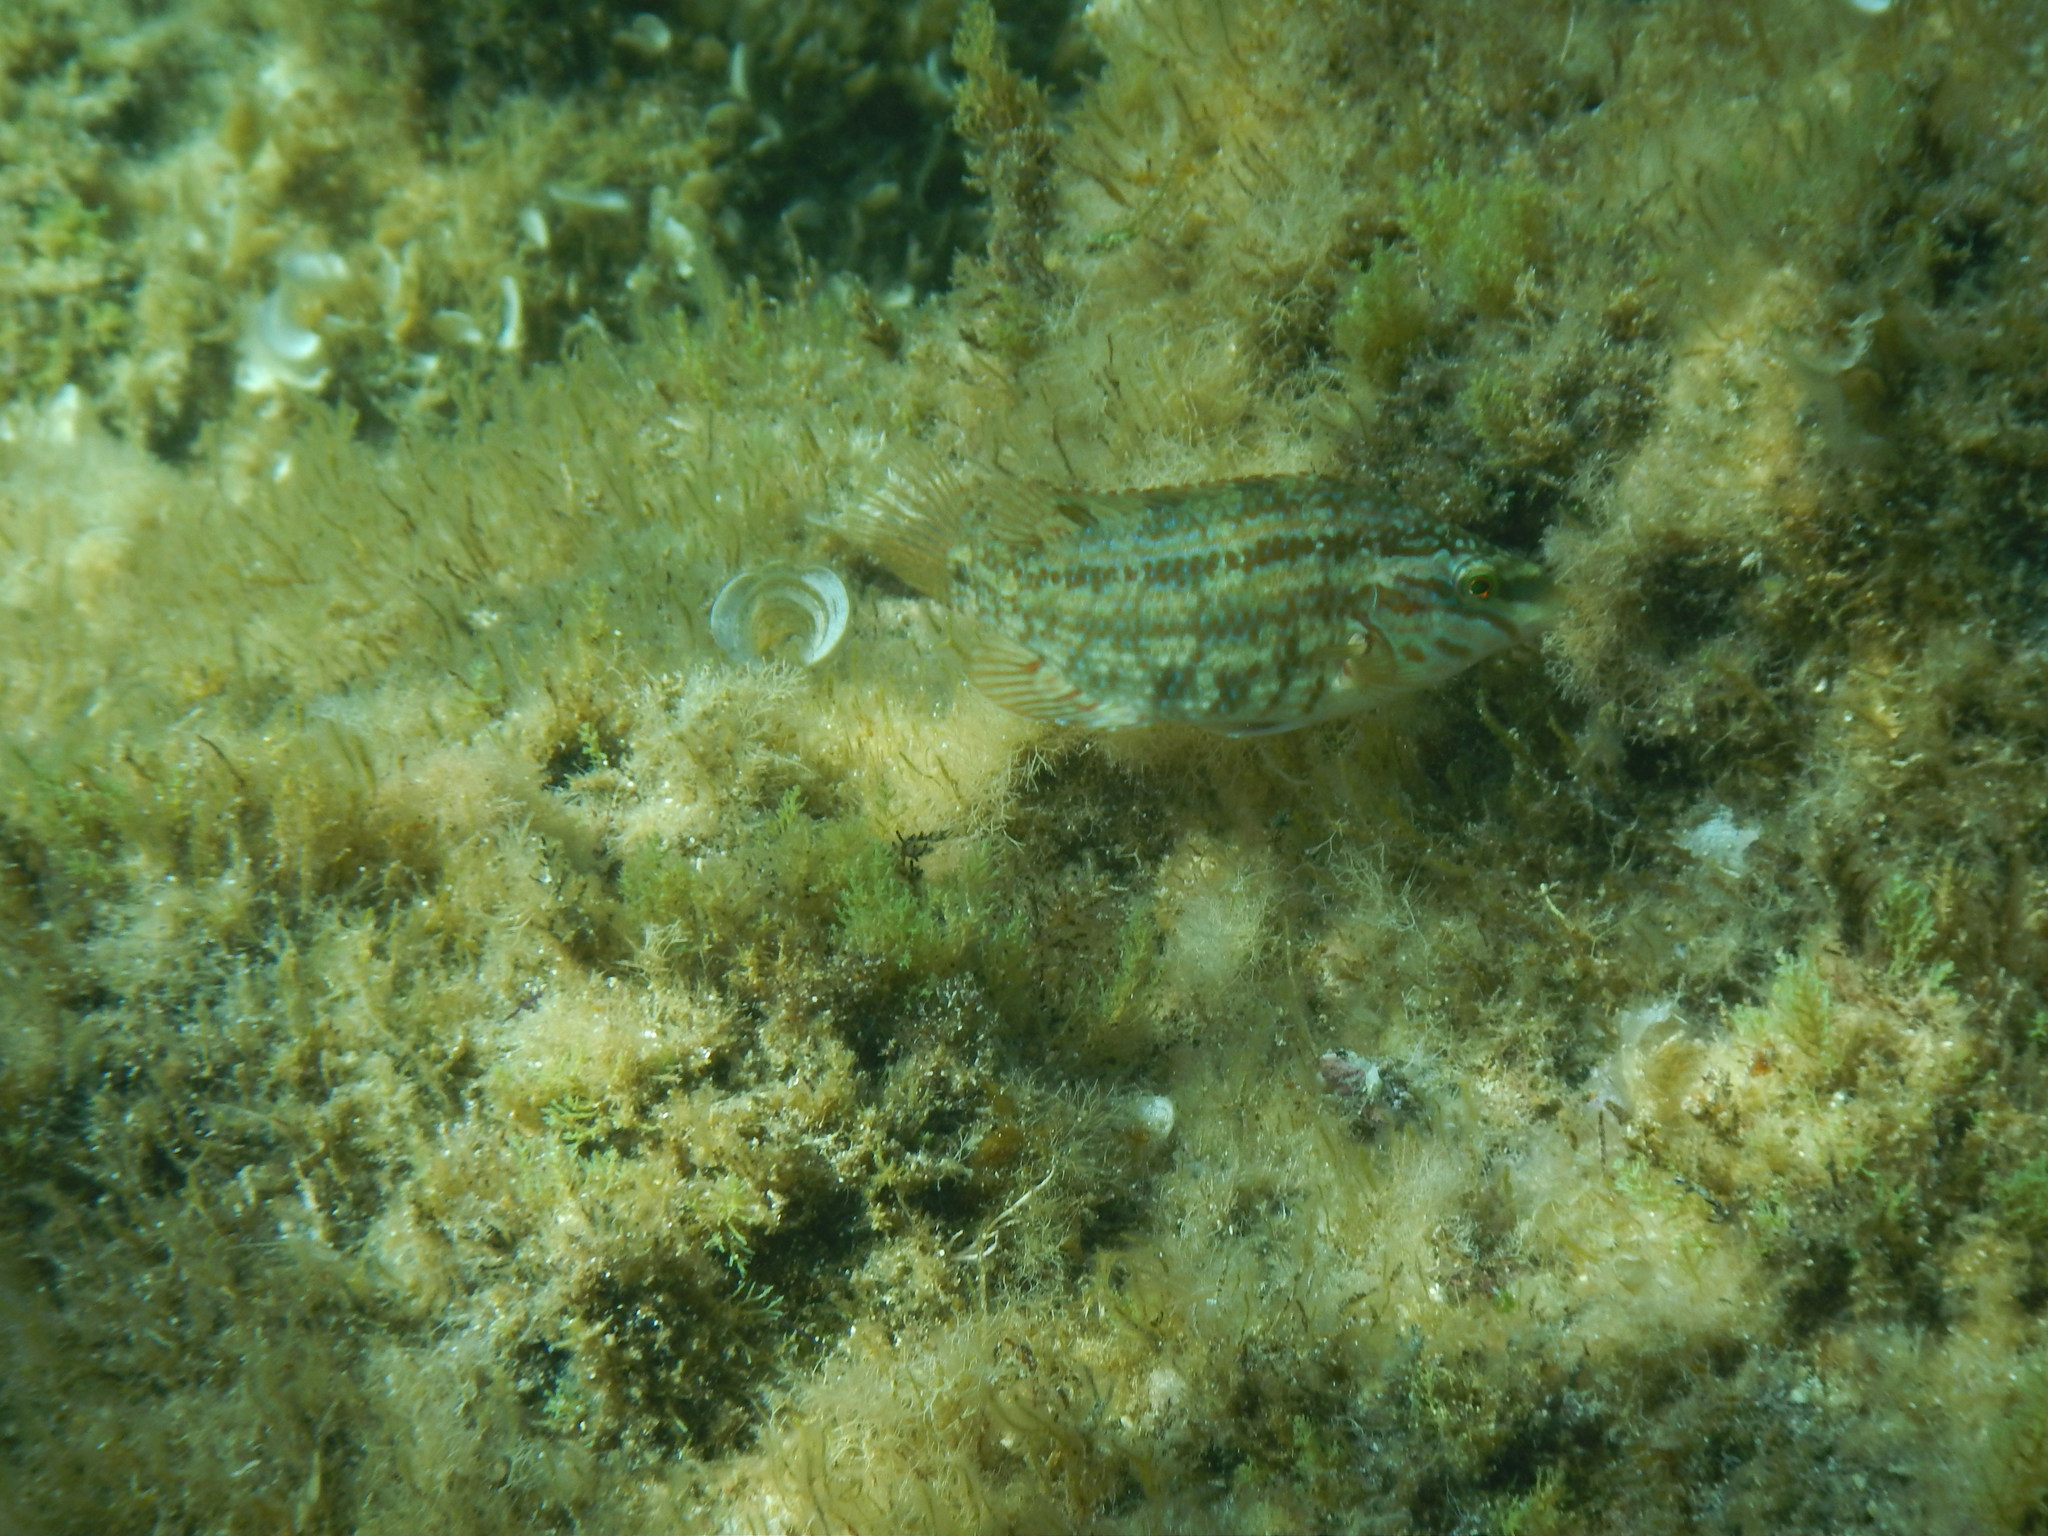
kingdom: Animalia
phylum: Chordata
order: Perciformes
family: Labridae
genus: Symphodus
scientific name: Symphodus roissali
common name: Five-spotted wrasse
